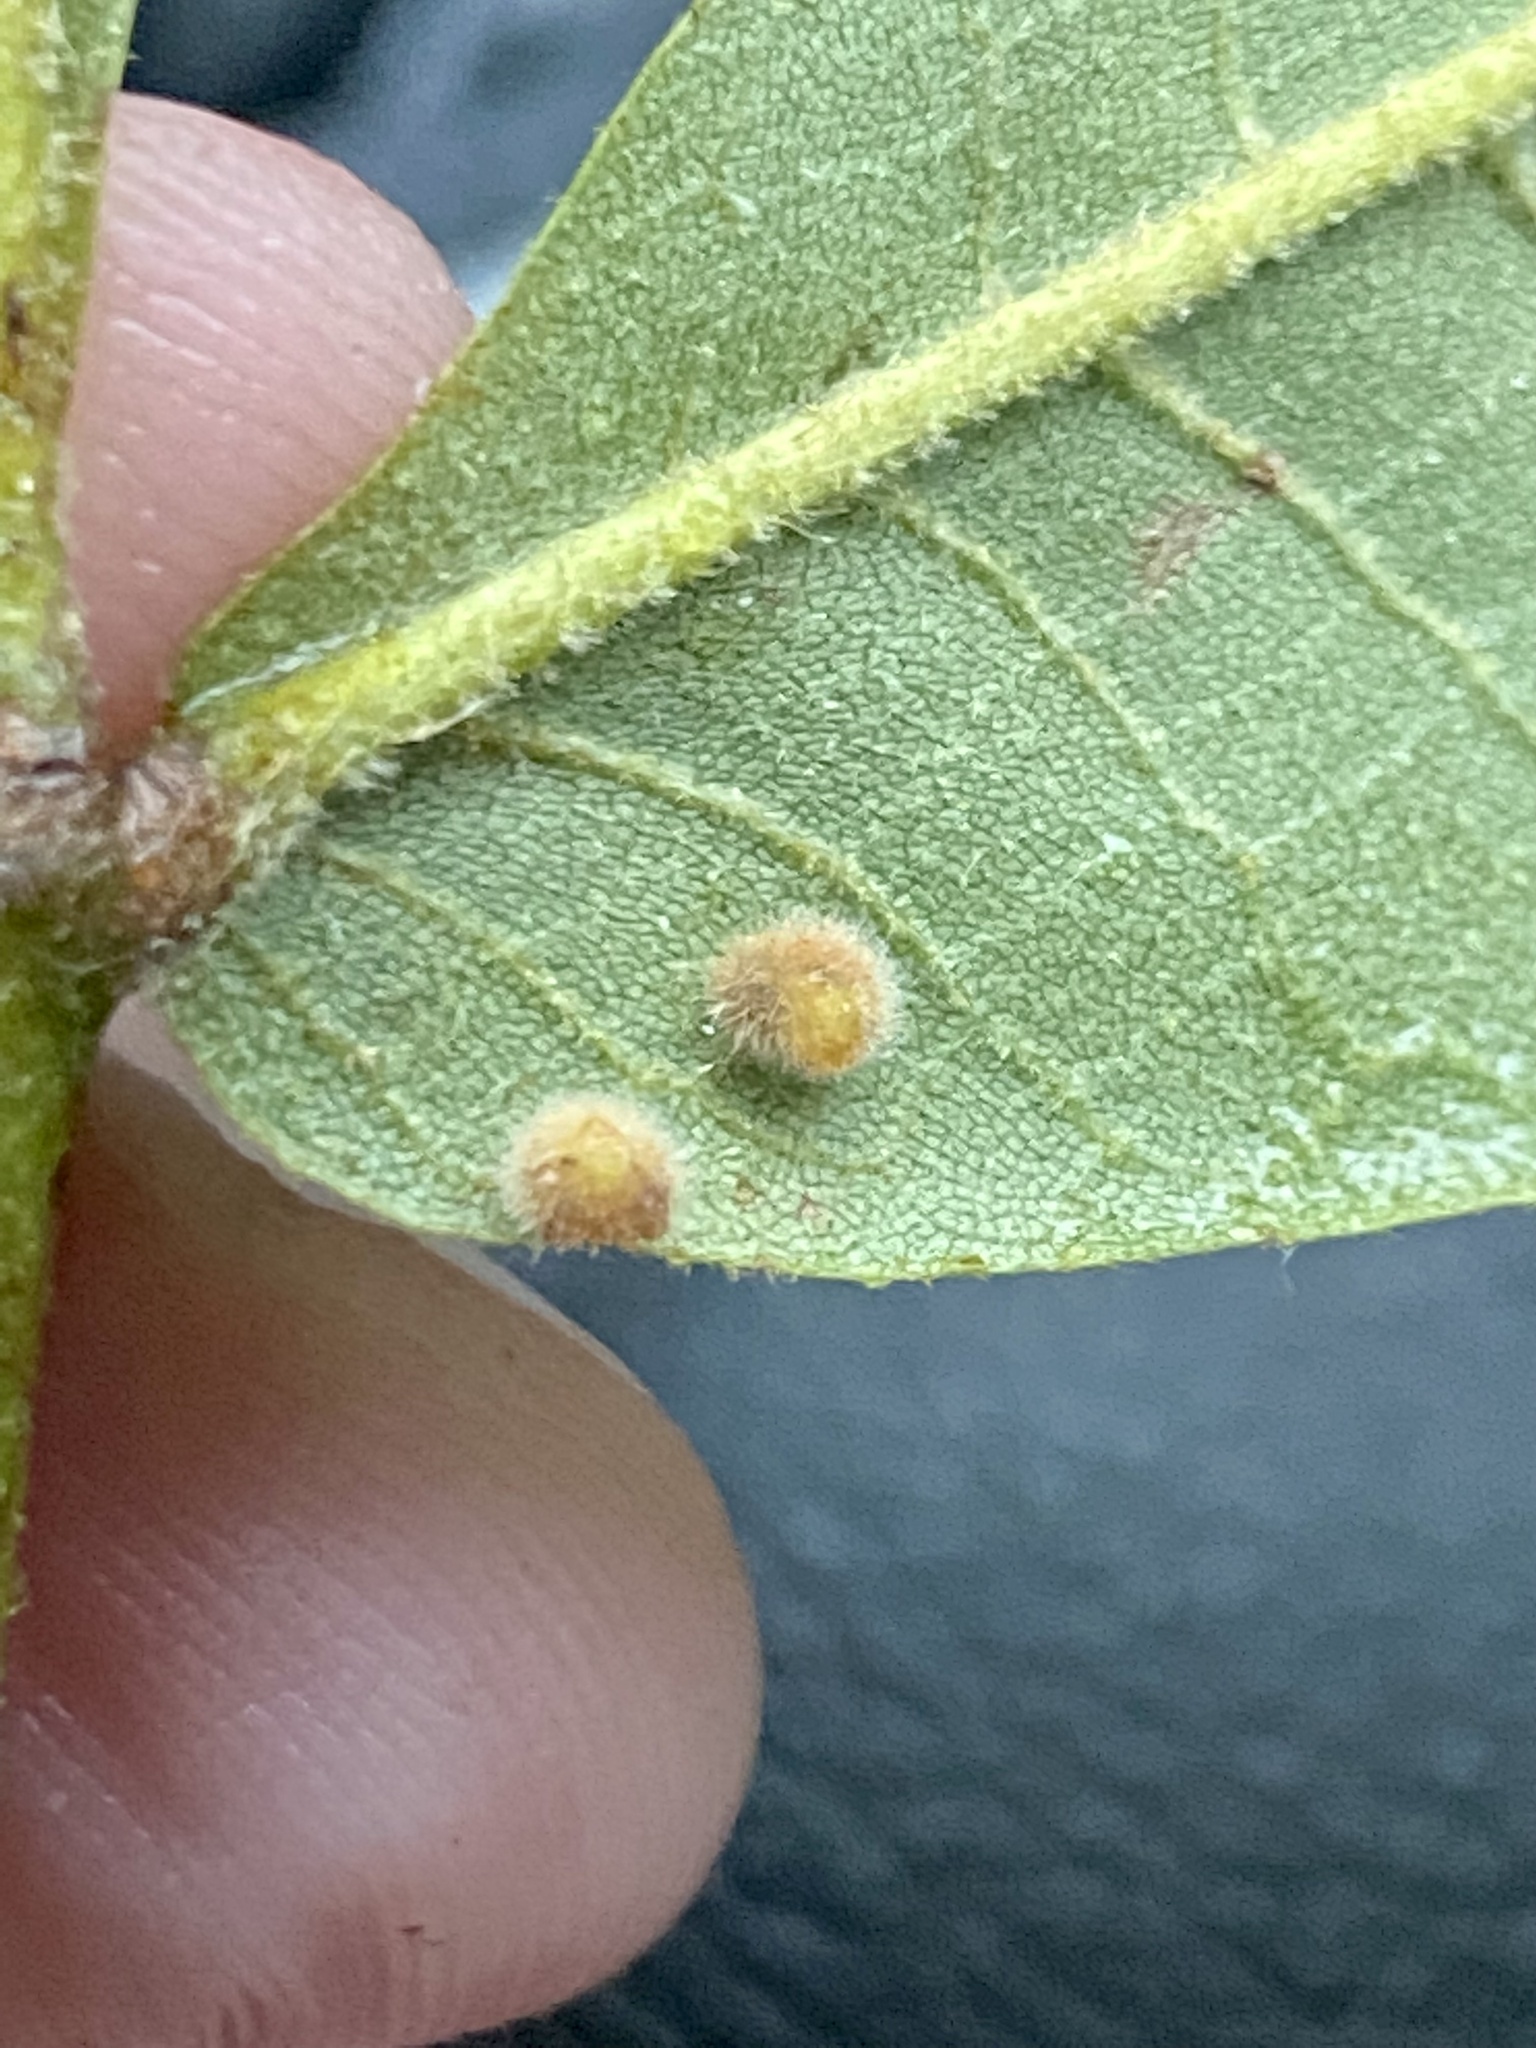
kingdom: Animalia
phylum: Arthropoda
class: Insecta
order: Diptera
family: Cecidomyiidae
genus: Caryomyia
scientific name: Caryomyia purpurea
